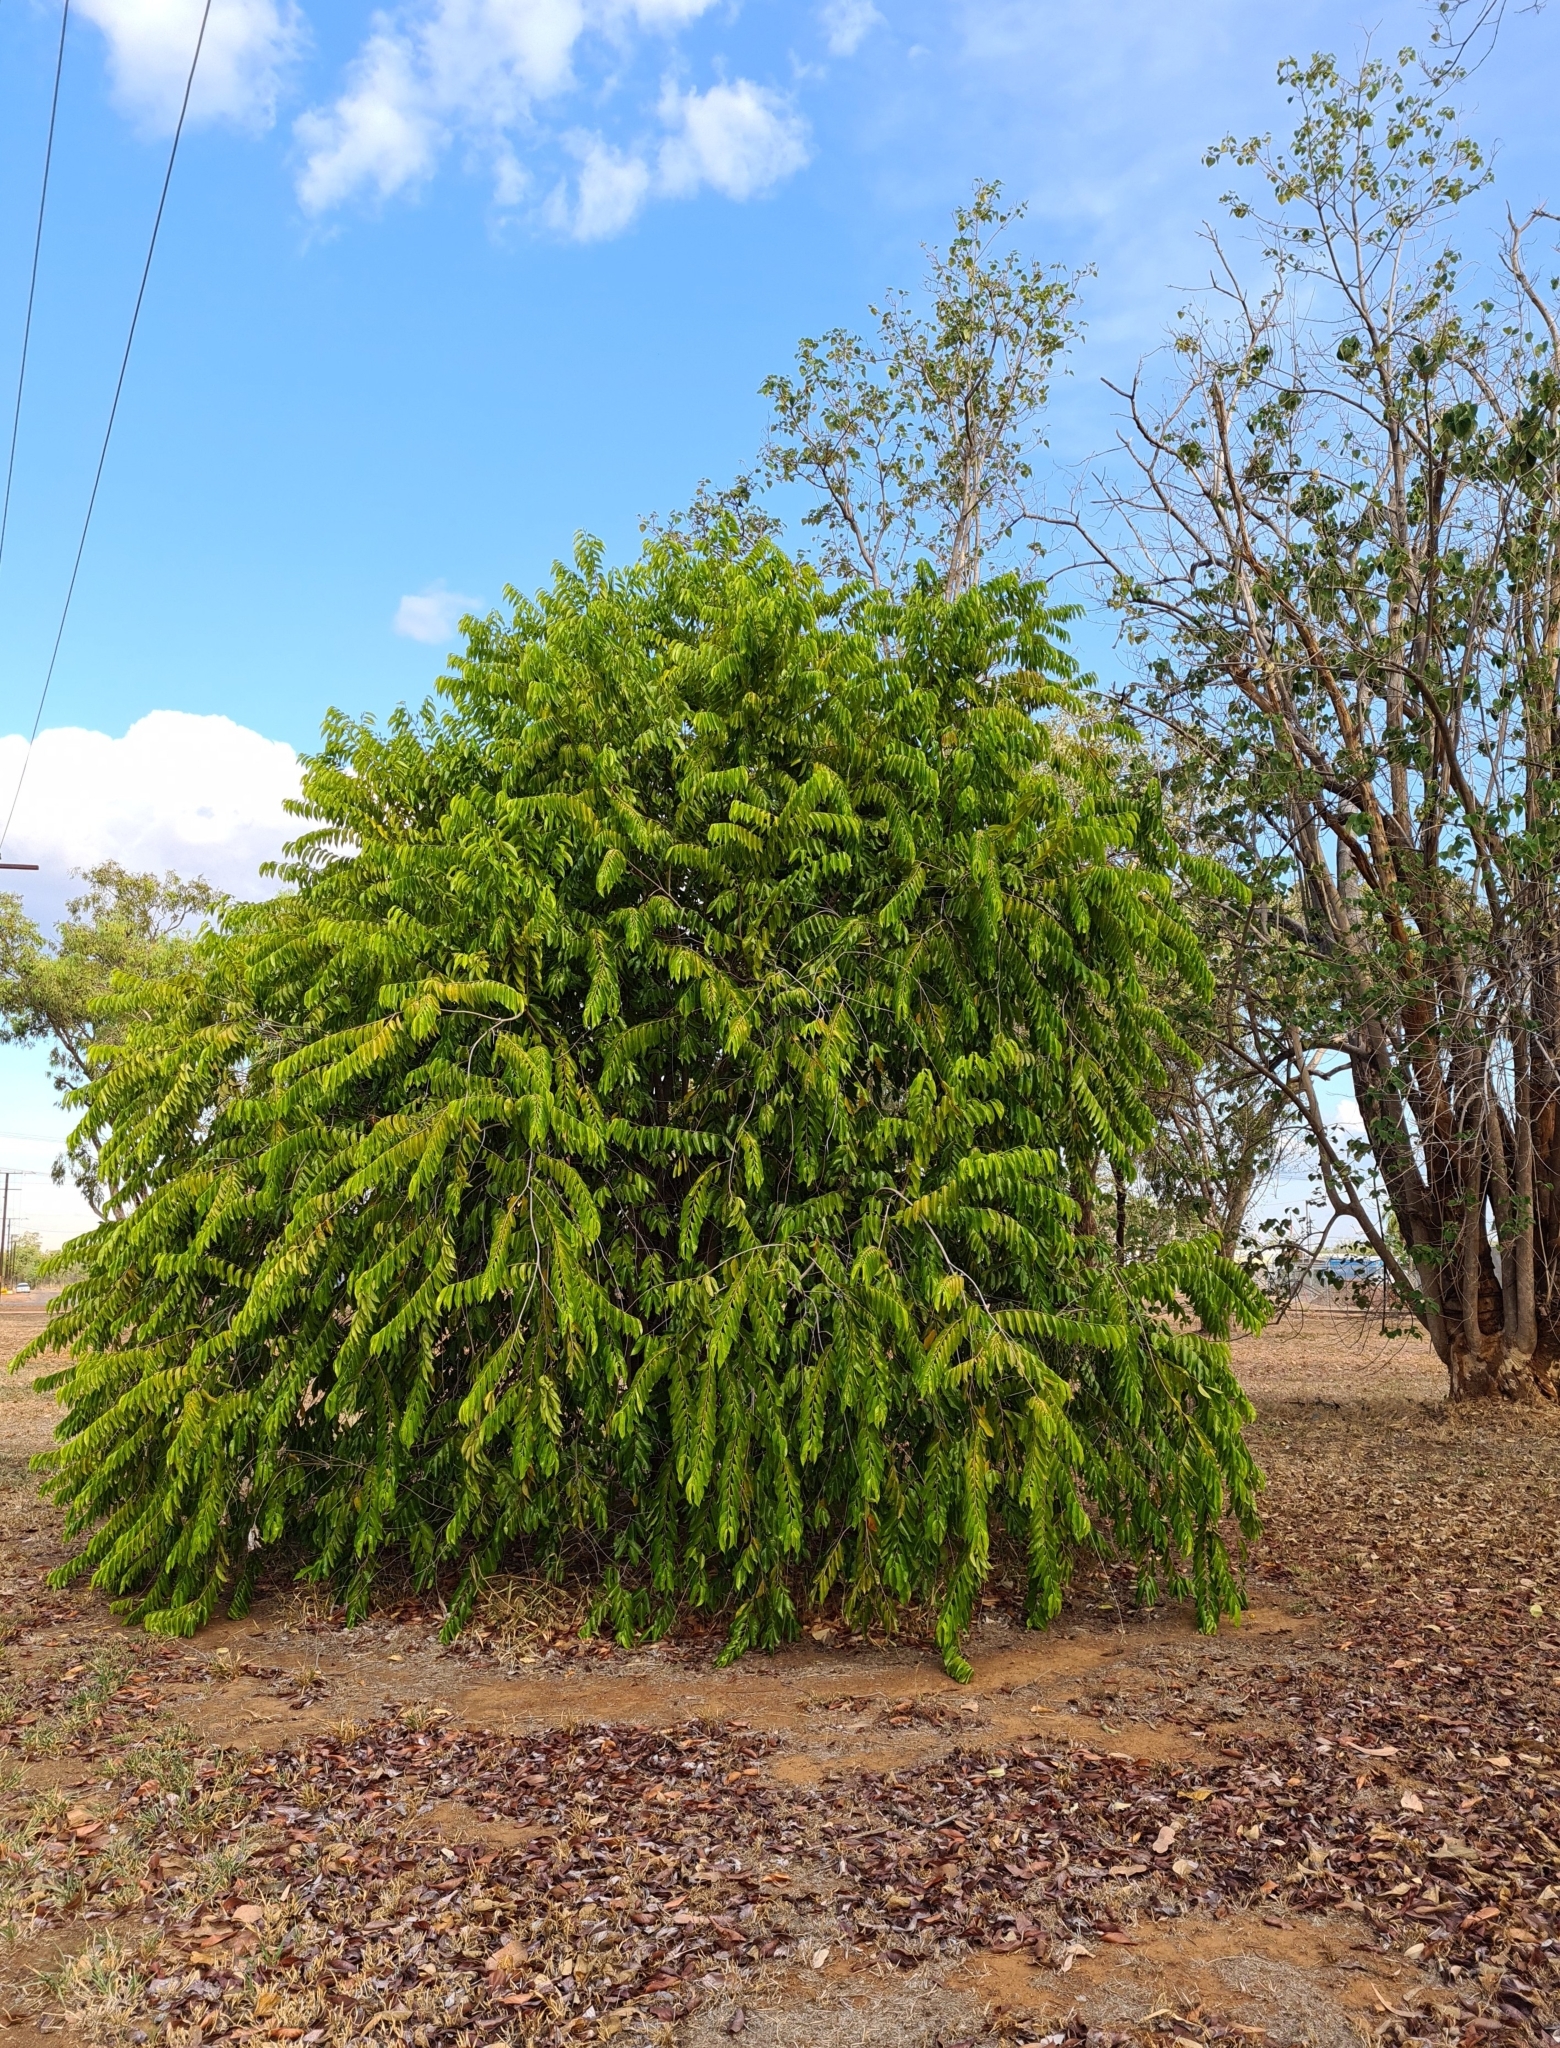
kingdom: Plantae
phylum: Tracheophyta
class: Magnoliopsida
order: Malpighiales
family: Chrysobalanaceae
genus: Maranthes
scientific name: Maranthes corymbosa
